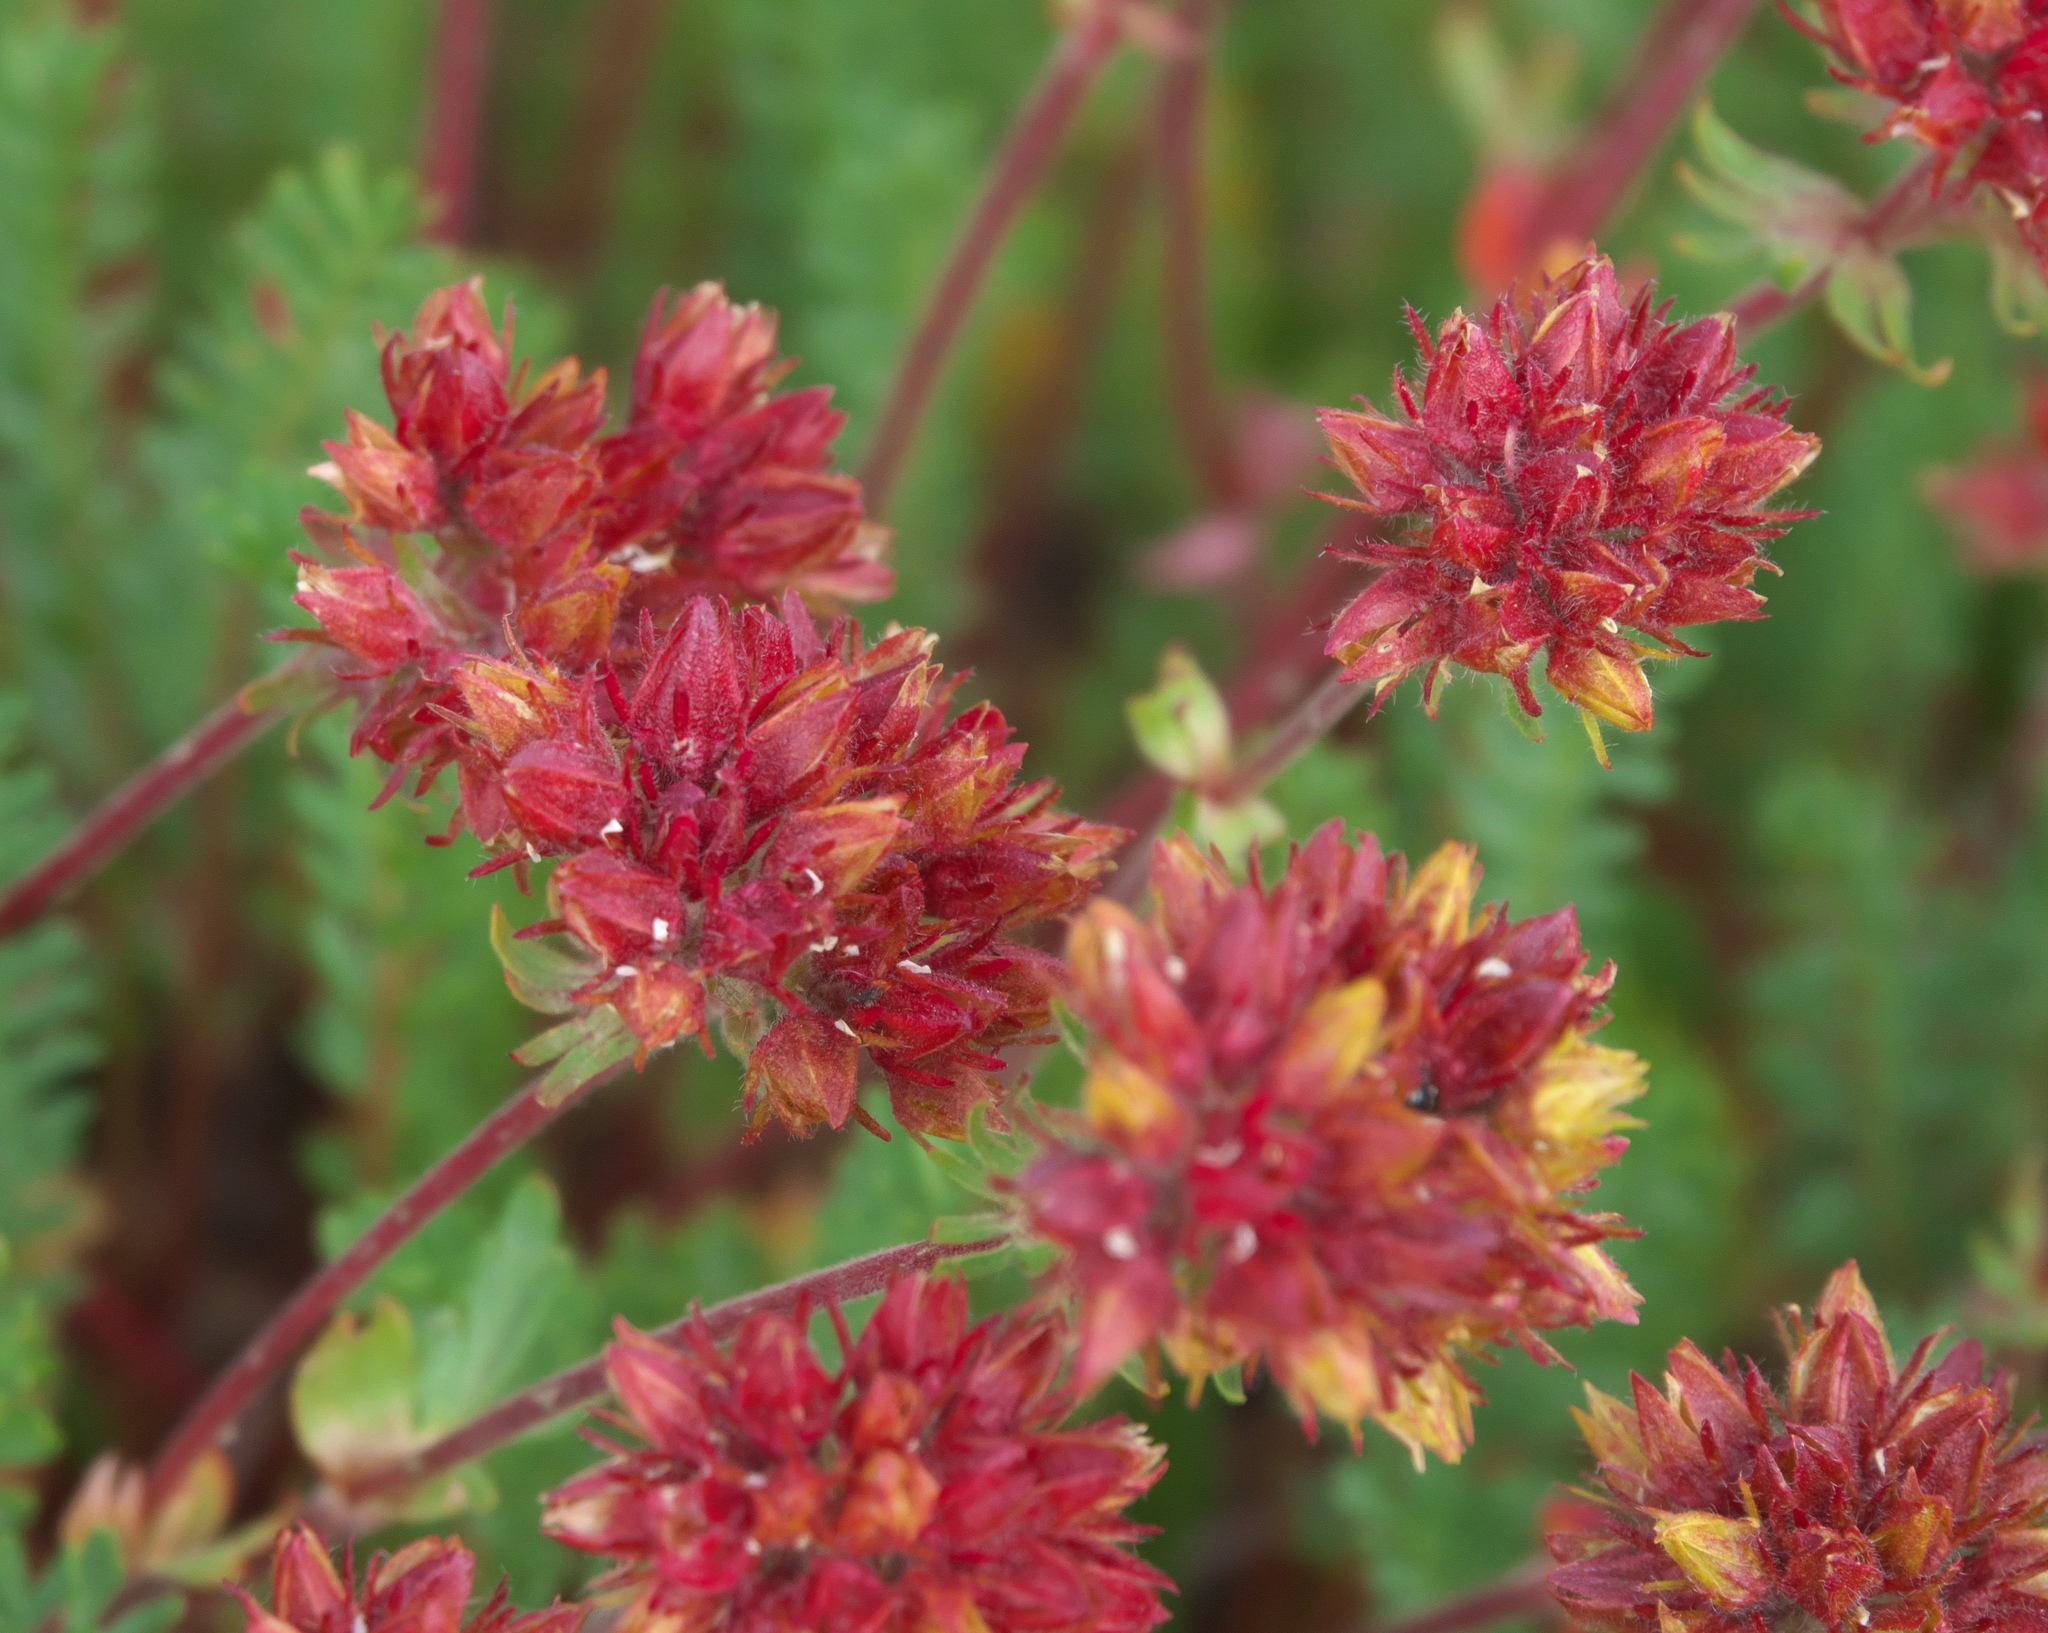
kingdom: Plantae
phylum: Tracheophyta
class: Magnoliopsida
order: Rosales
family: Rosaceae
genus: Potentilla
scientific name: Potentilla gordonii
